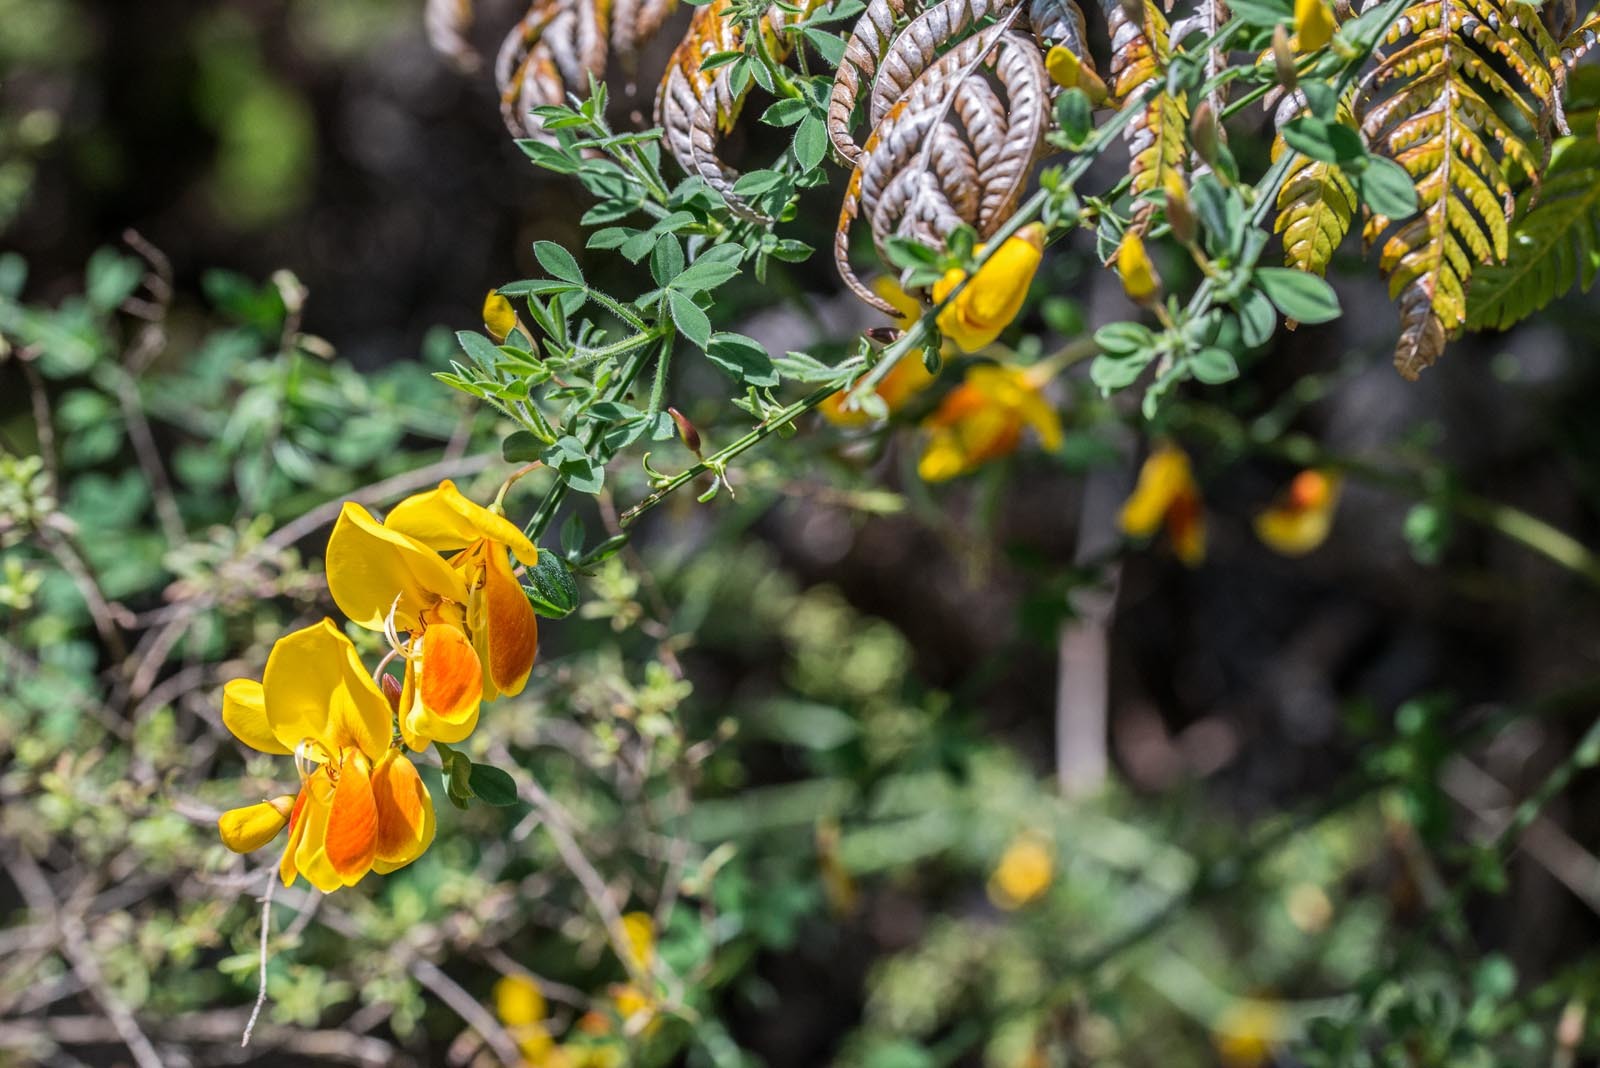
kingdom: Plantae
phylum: Tracheophyta
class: Magnoliopsida
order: Fabales
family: Fabaceae
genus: Cytisus
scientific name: Cytisus scoparius
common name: Scotch broom
